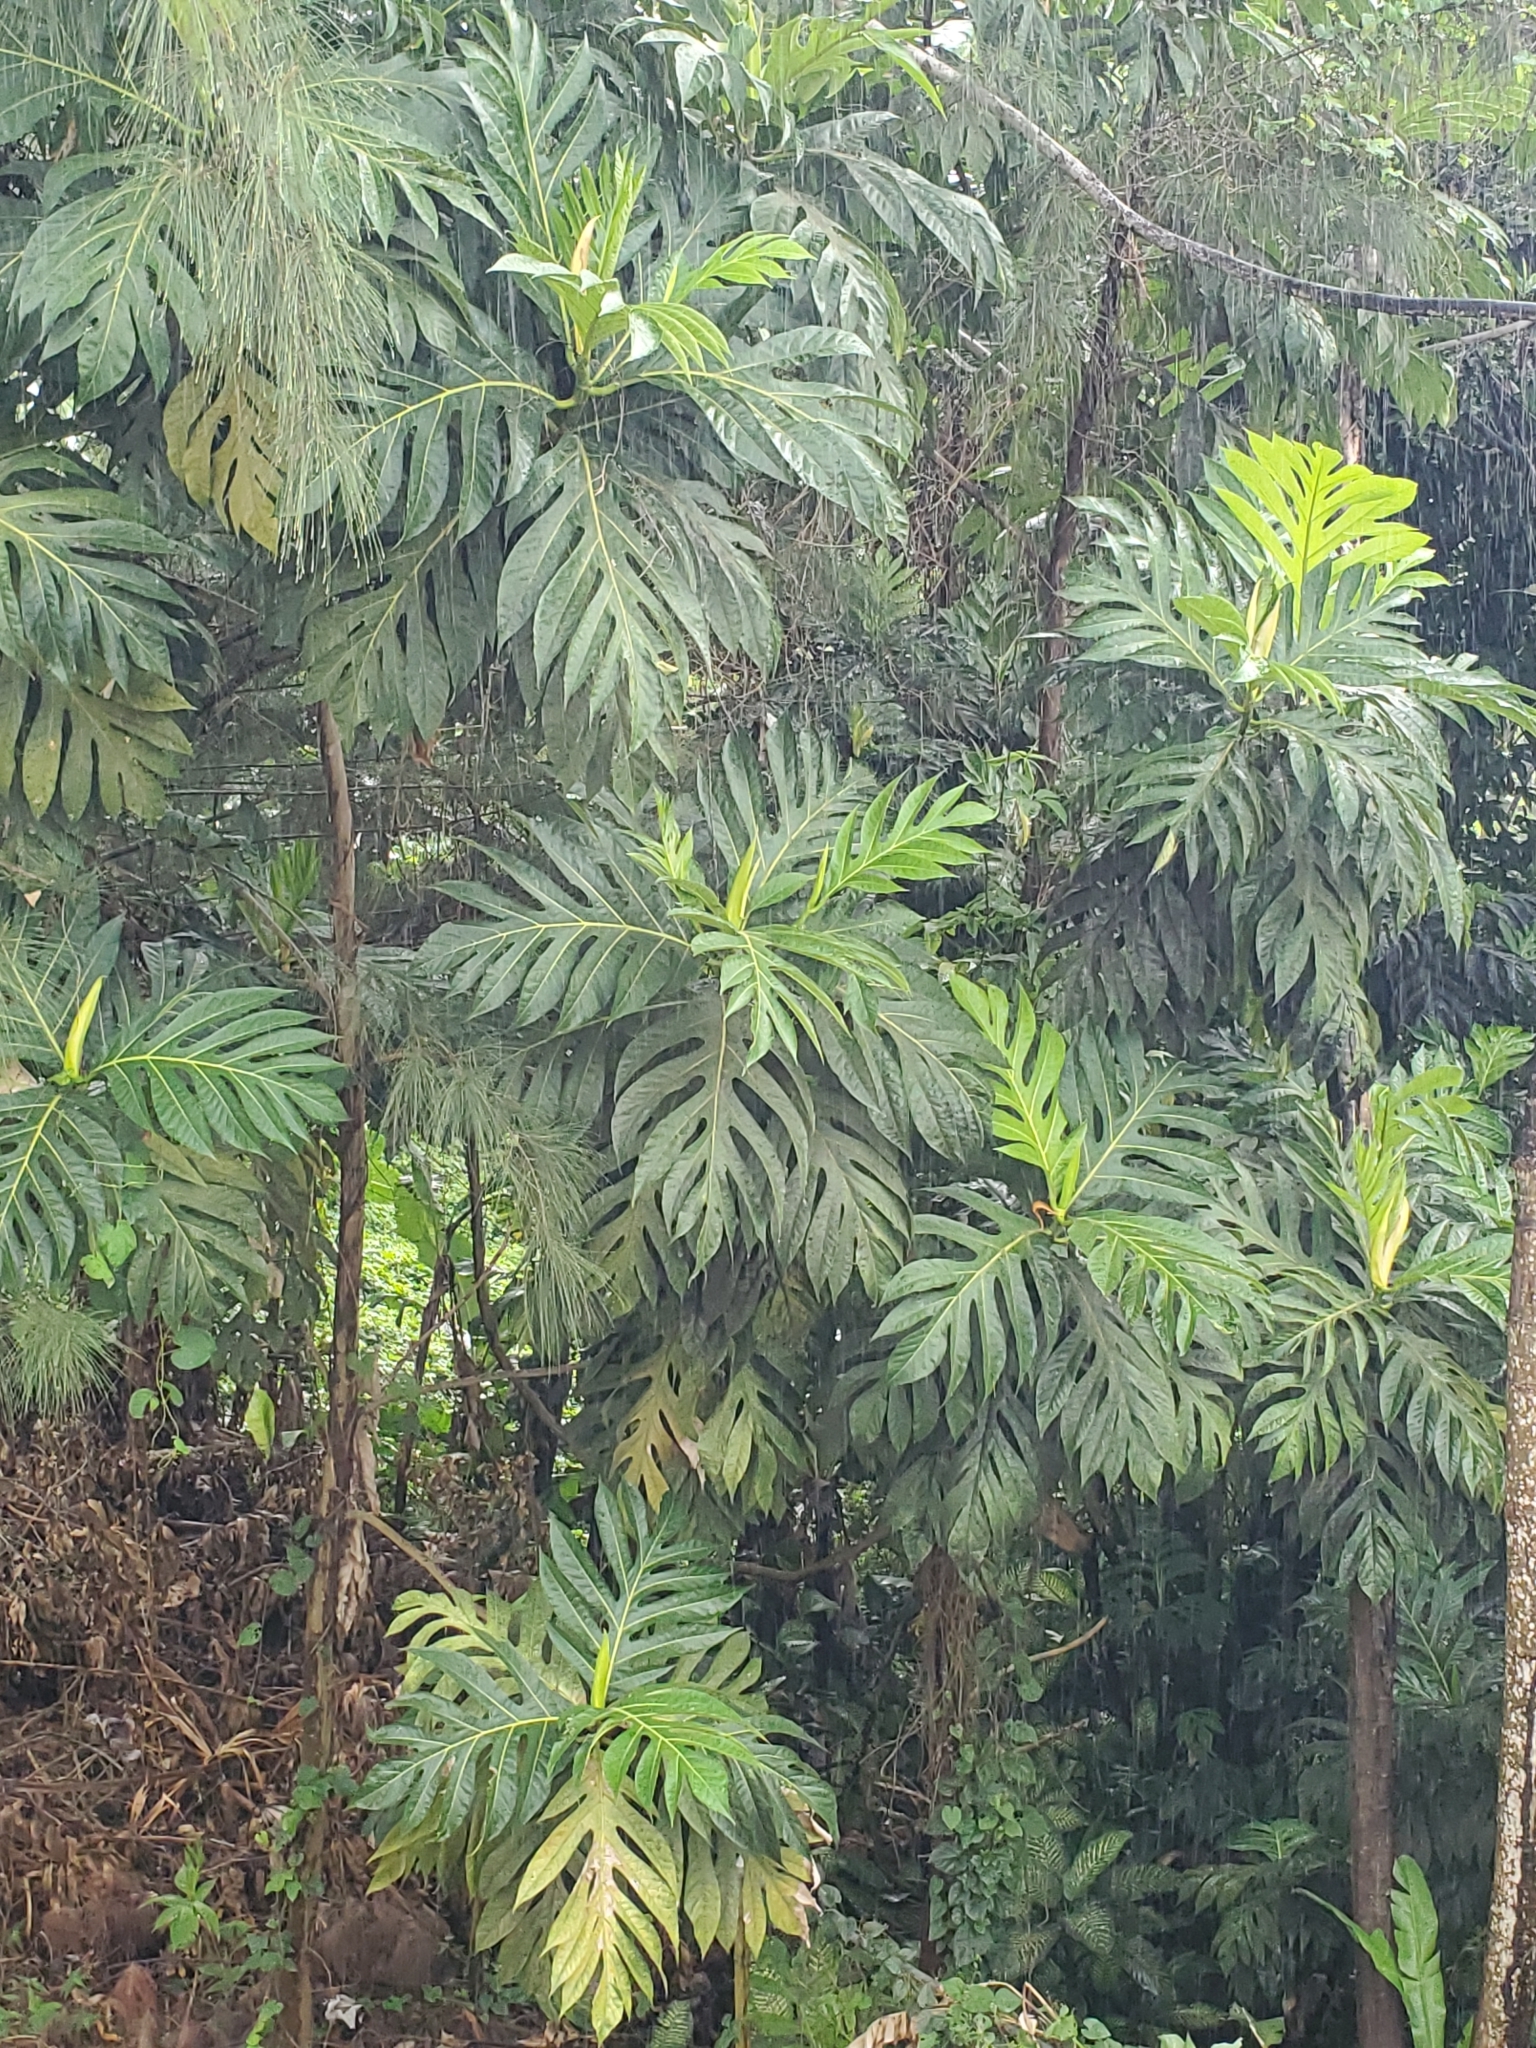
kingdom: Plantae
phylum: Tracheophyta
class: Magnoliopsida
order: Rosales
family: Moraceae
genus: Artocarpus
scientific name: Artocarpus altilis
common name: Breadfruit
